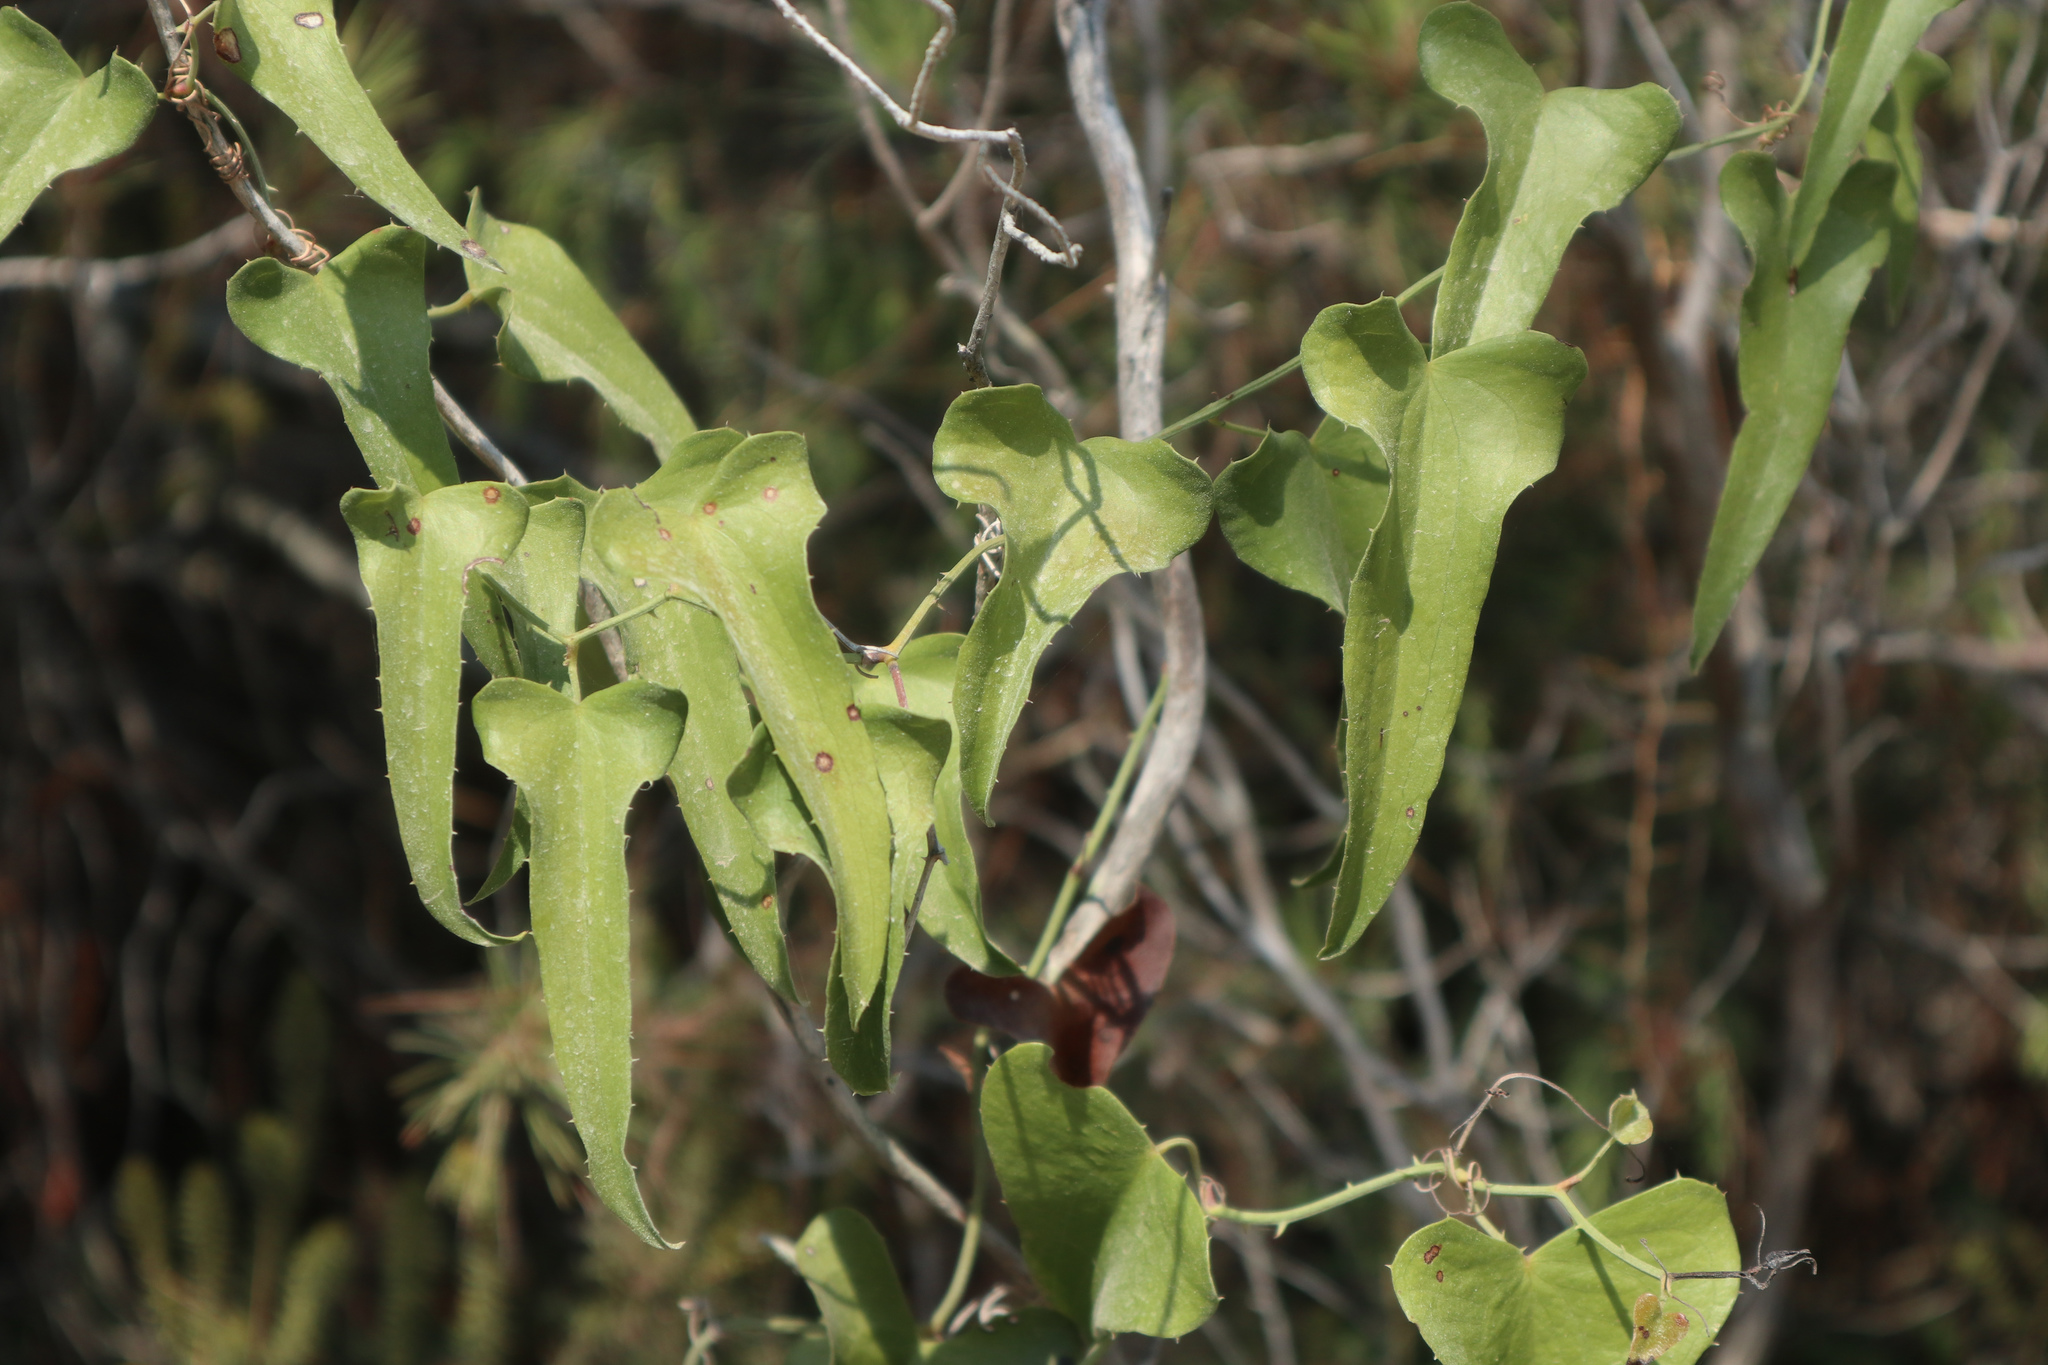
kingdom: Plantae
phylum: Tracheophyta
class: Liliopsida
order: Liliales
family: Smilacaceae
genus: Smilax
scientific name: Smilax aspera
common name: Common smilax
